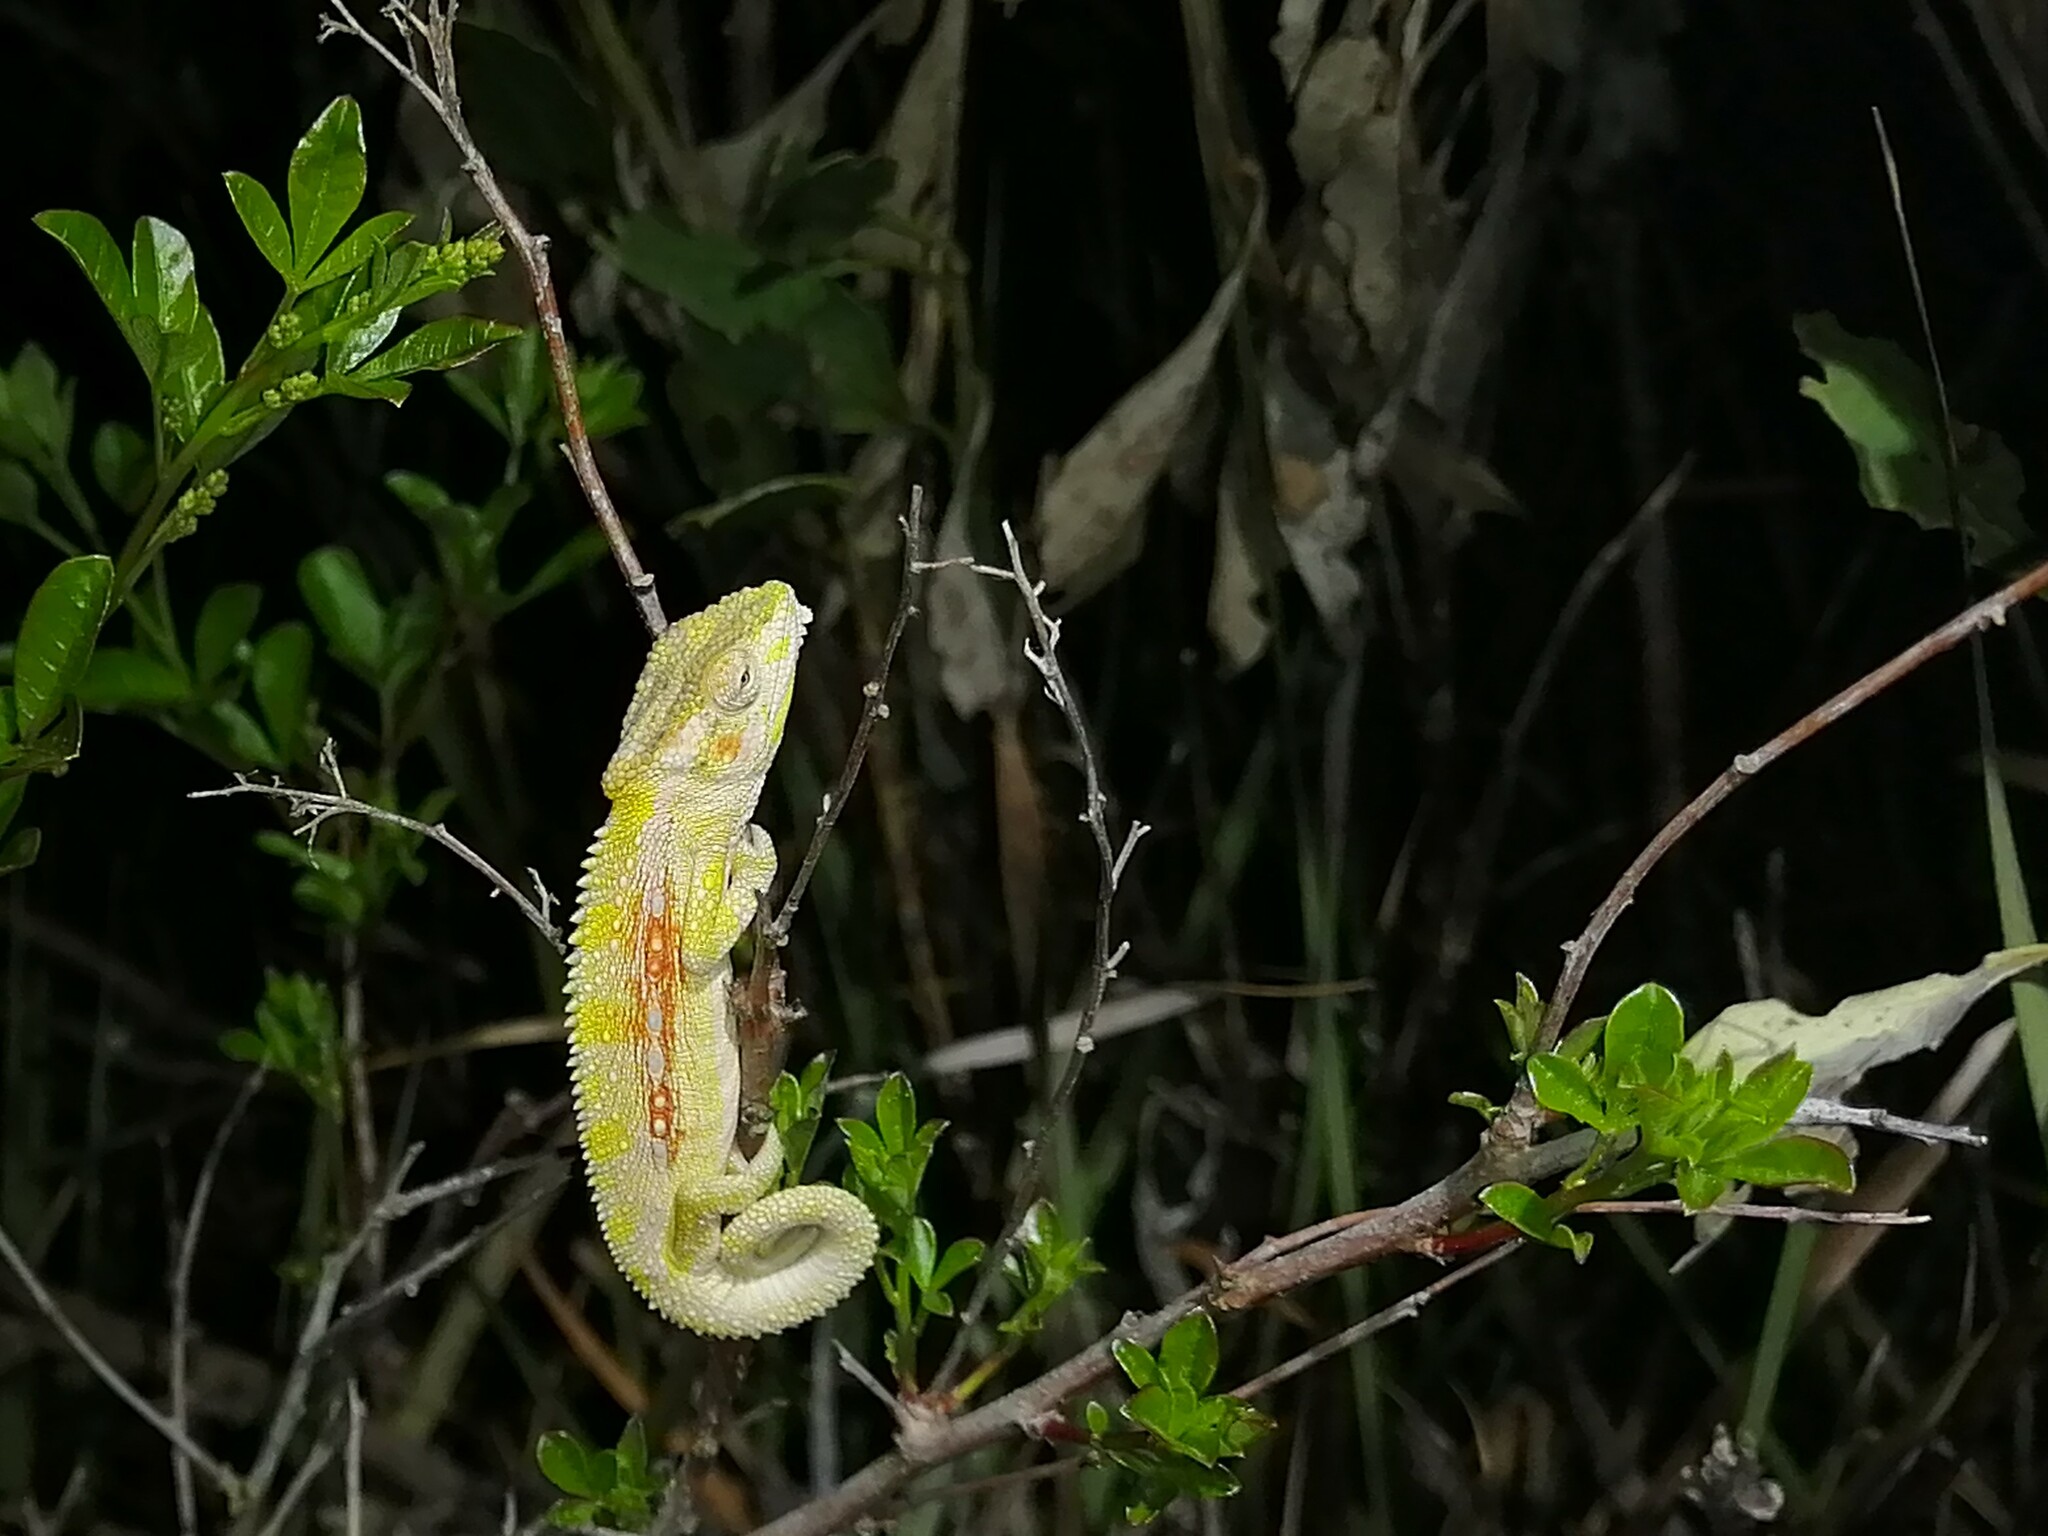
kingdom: Animalia
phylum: Chordata
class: Squamata
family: Chamaeleonidae
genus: Bradypodion
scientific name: Bradypodion pumilum
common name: Cape dwarf chameleon
